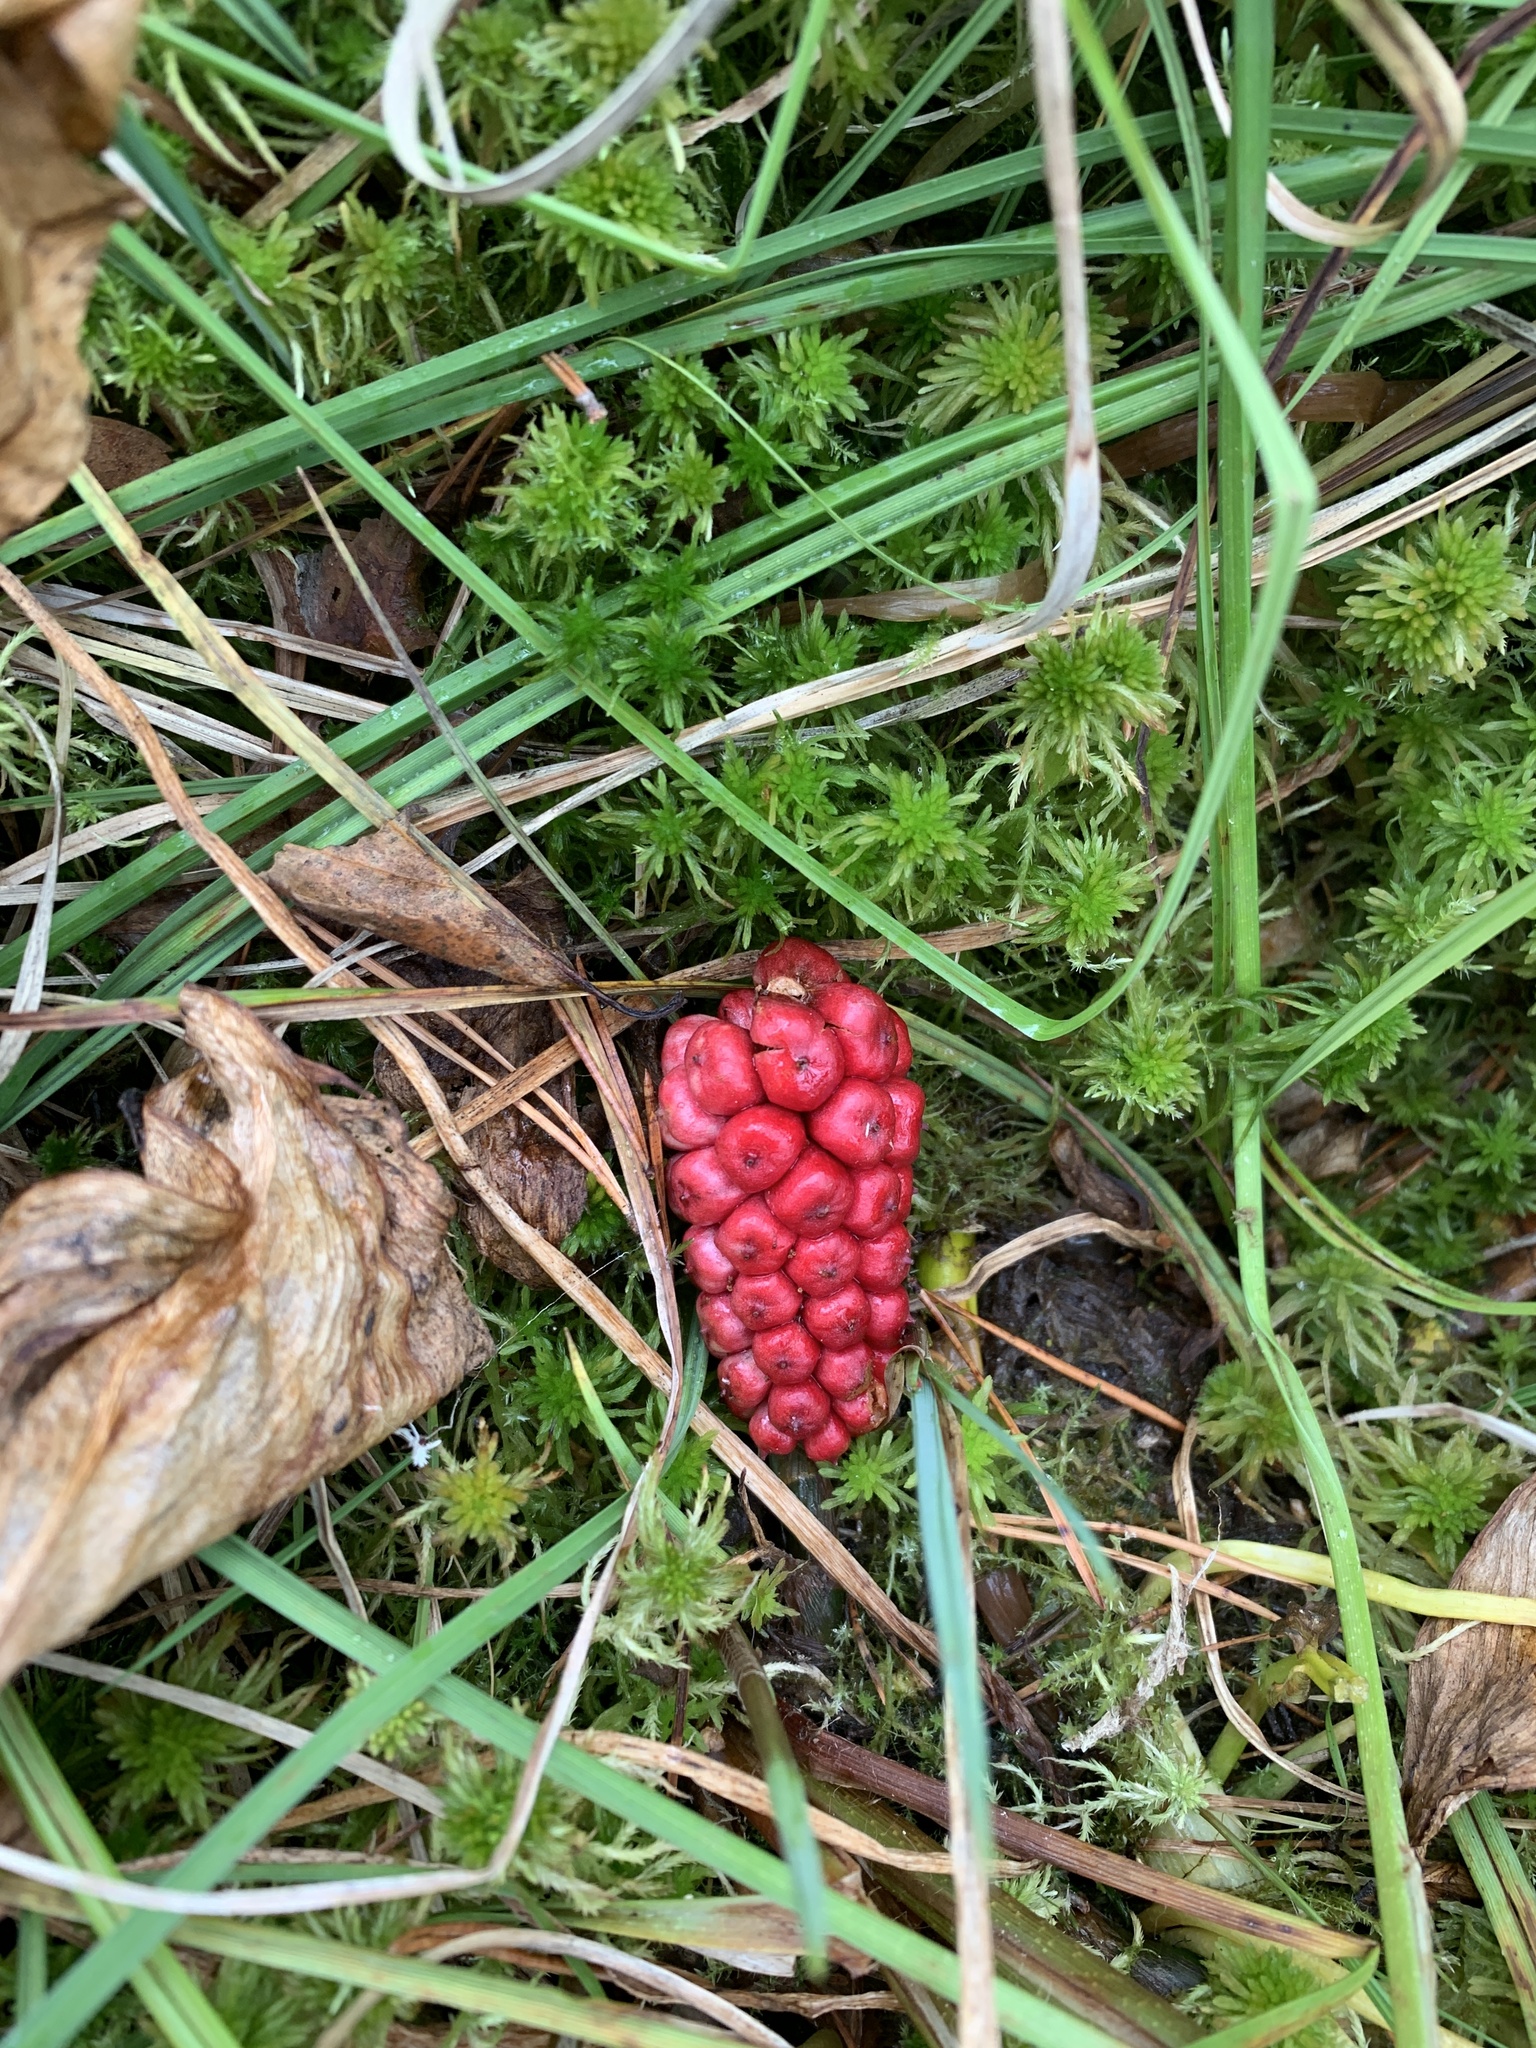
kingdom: Plantae
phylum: Tracheophyta
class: Liliopsida
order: Alismatales
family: Araceae
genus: Calla
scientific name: Calla palustris
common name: Bog arum
